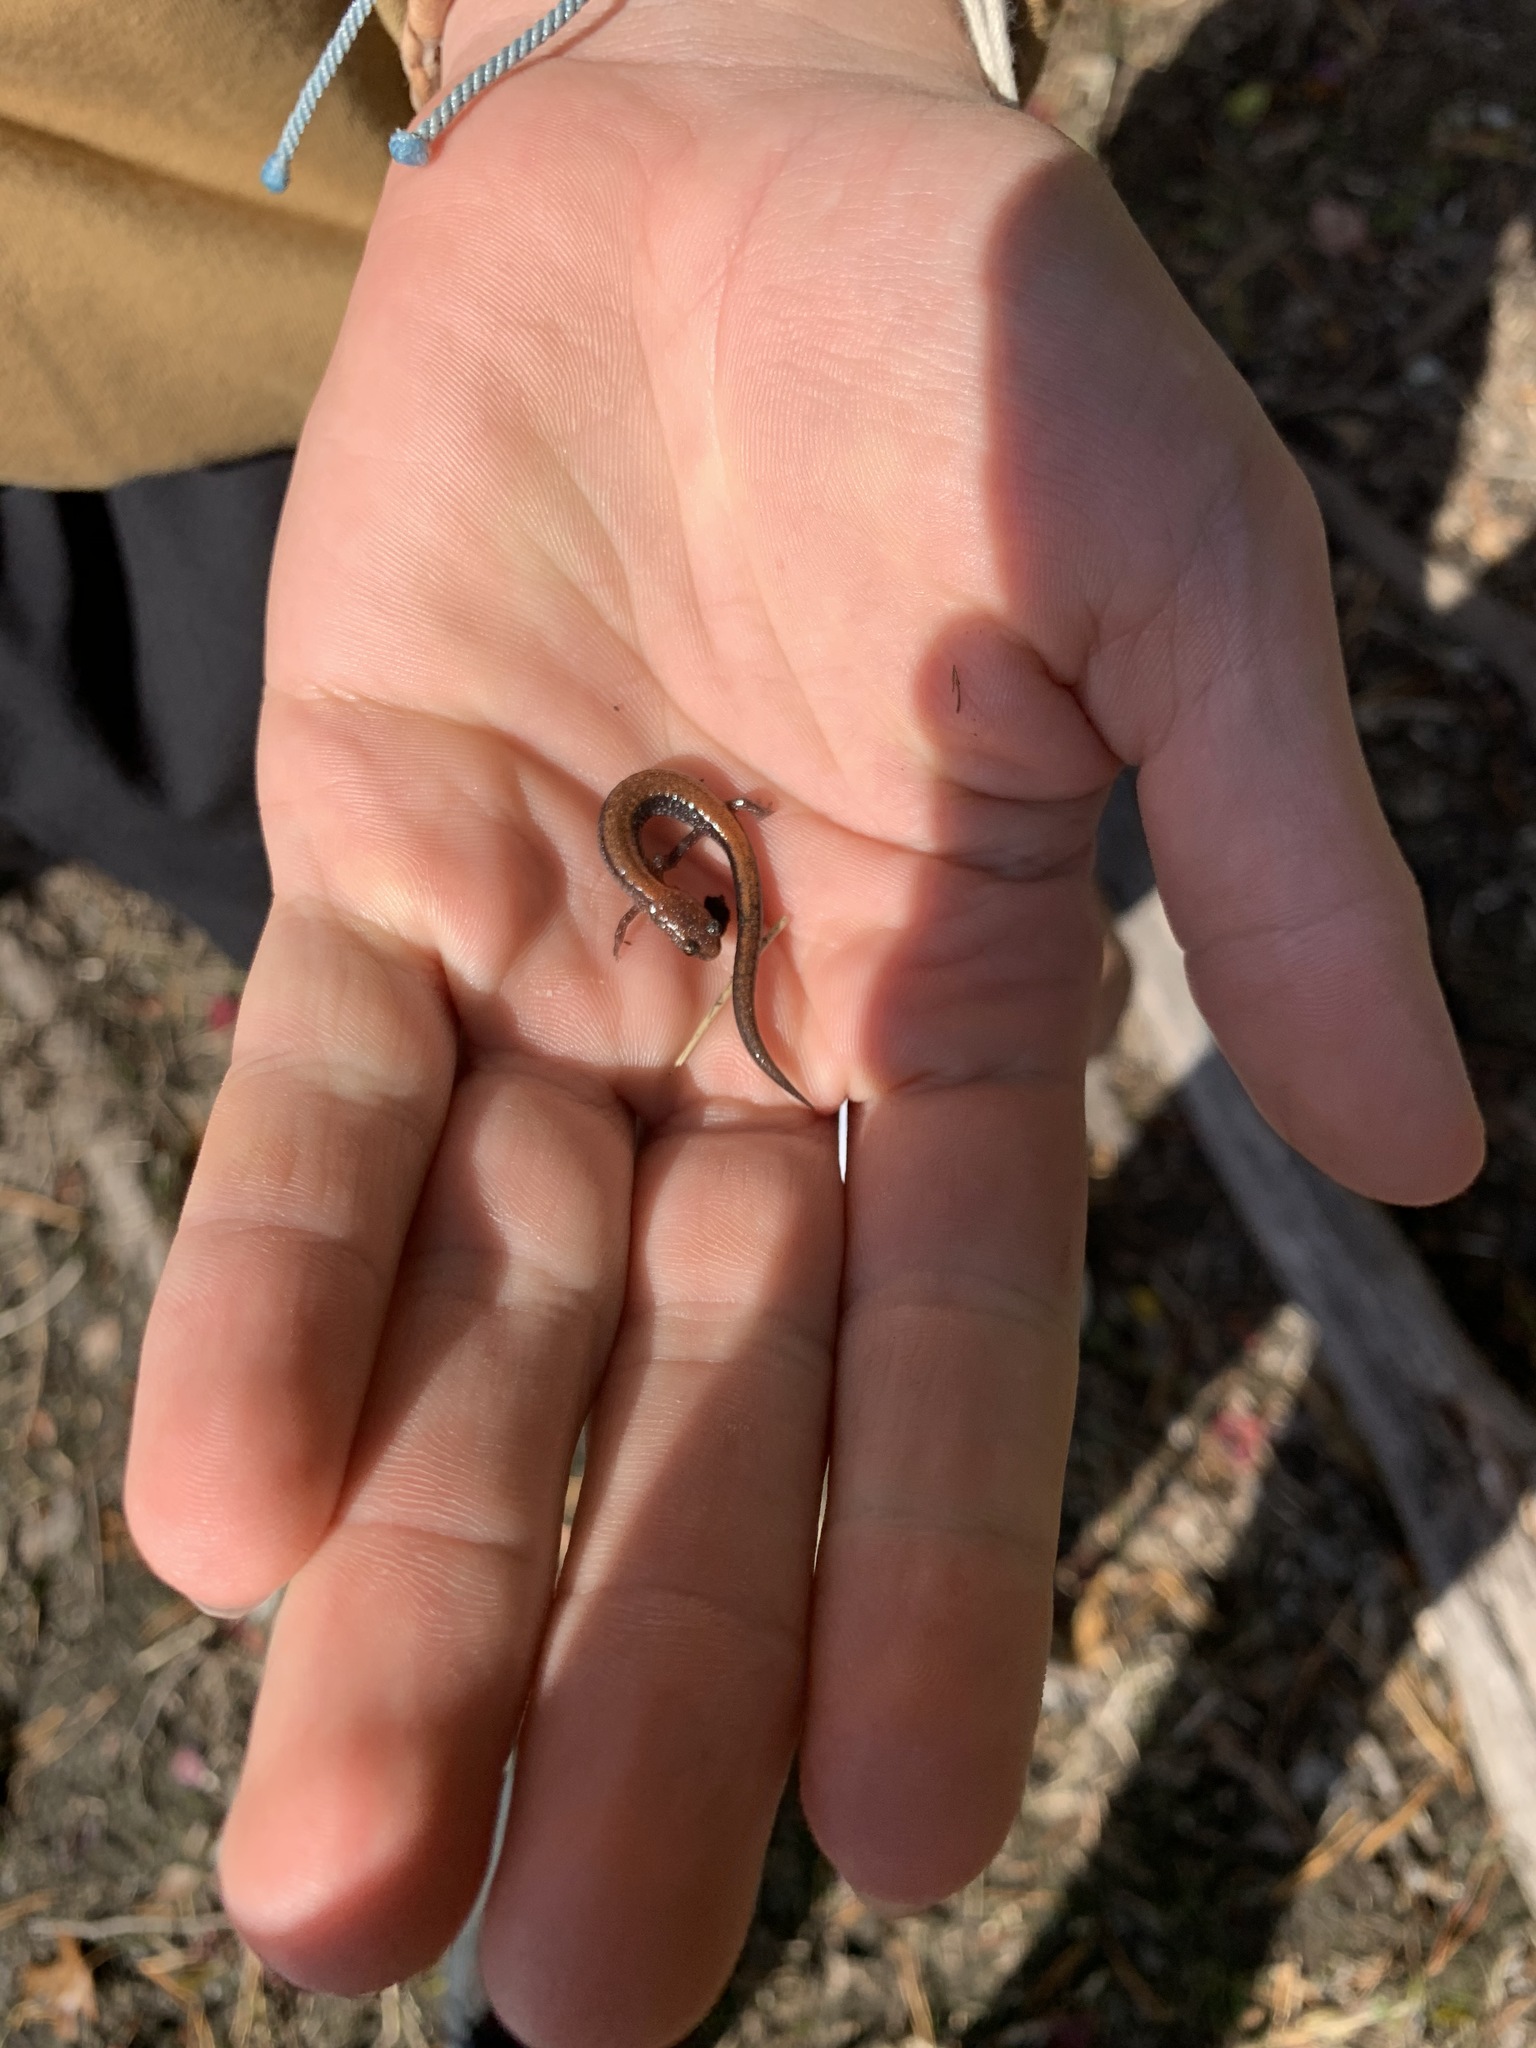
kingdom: Animalia
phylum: Chordata
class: Amphibia
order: Caudata
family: Plethodontidae
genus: Plethodon
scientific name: Plethodon cinereus
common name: Redback salamander
